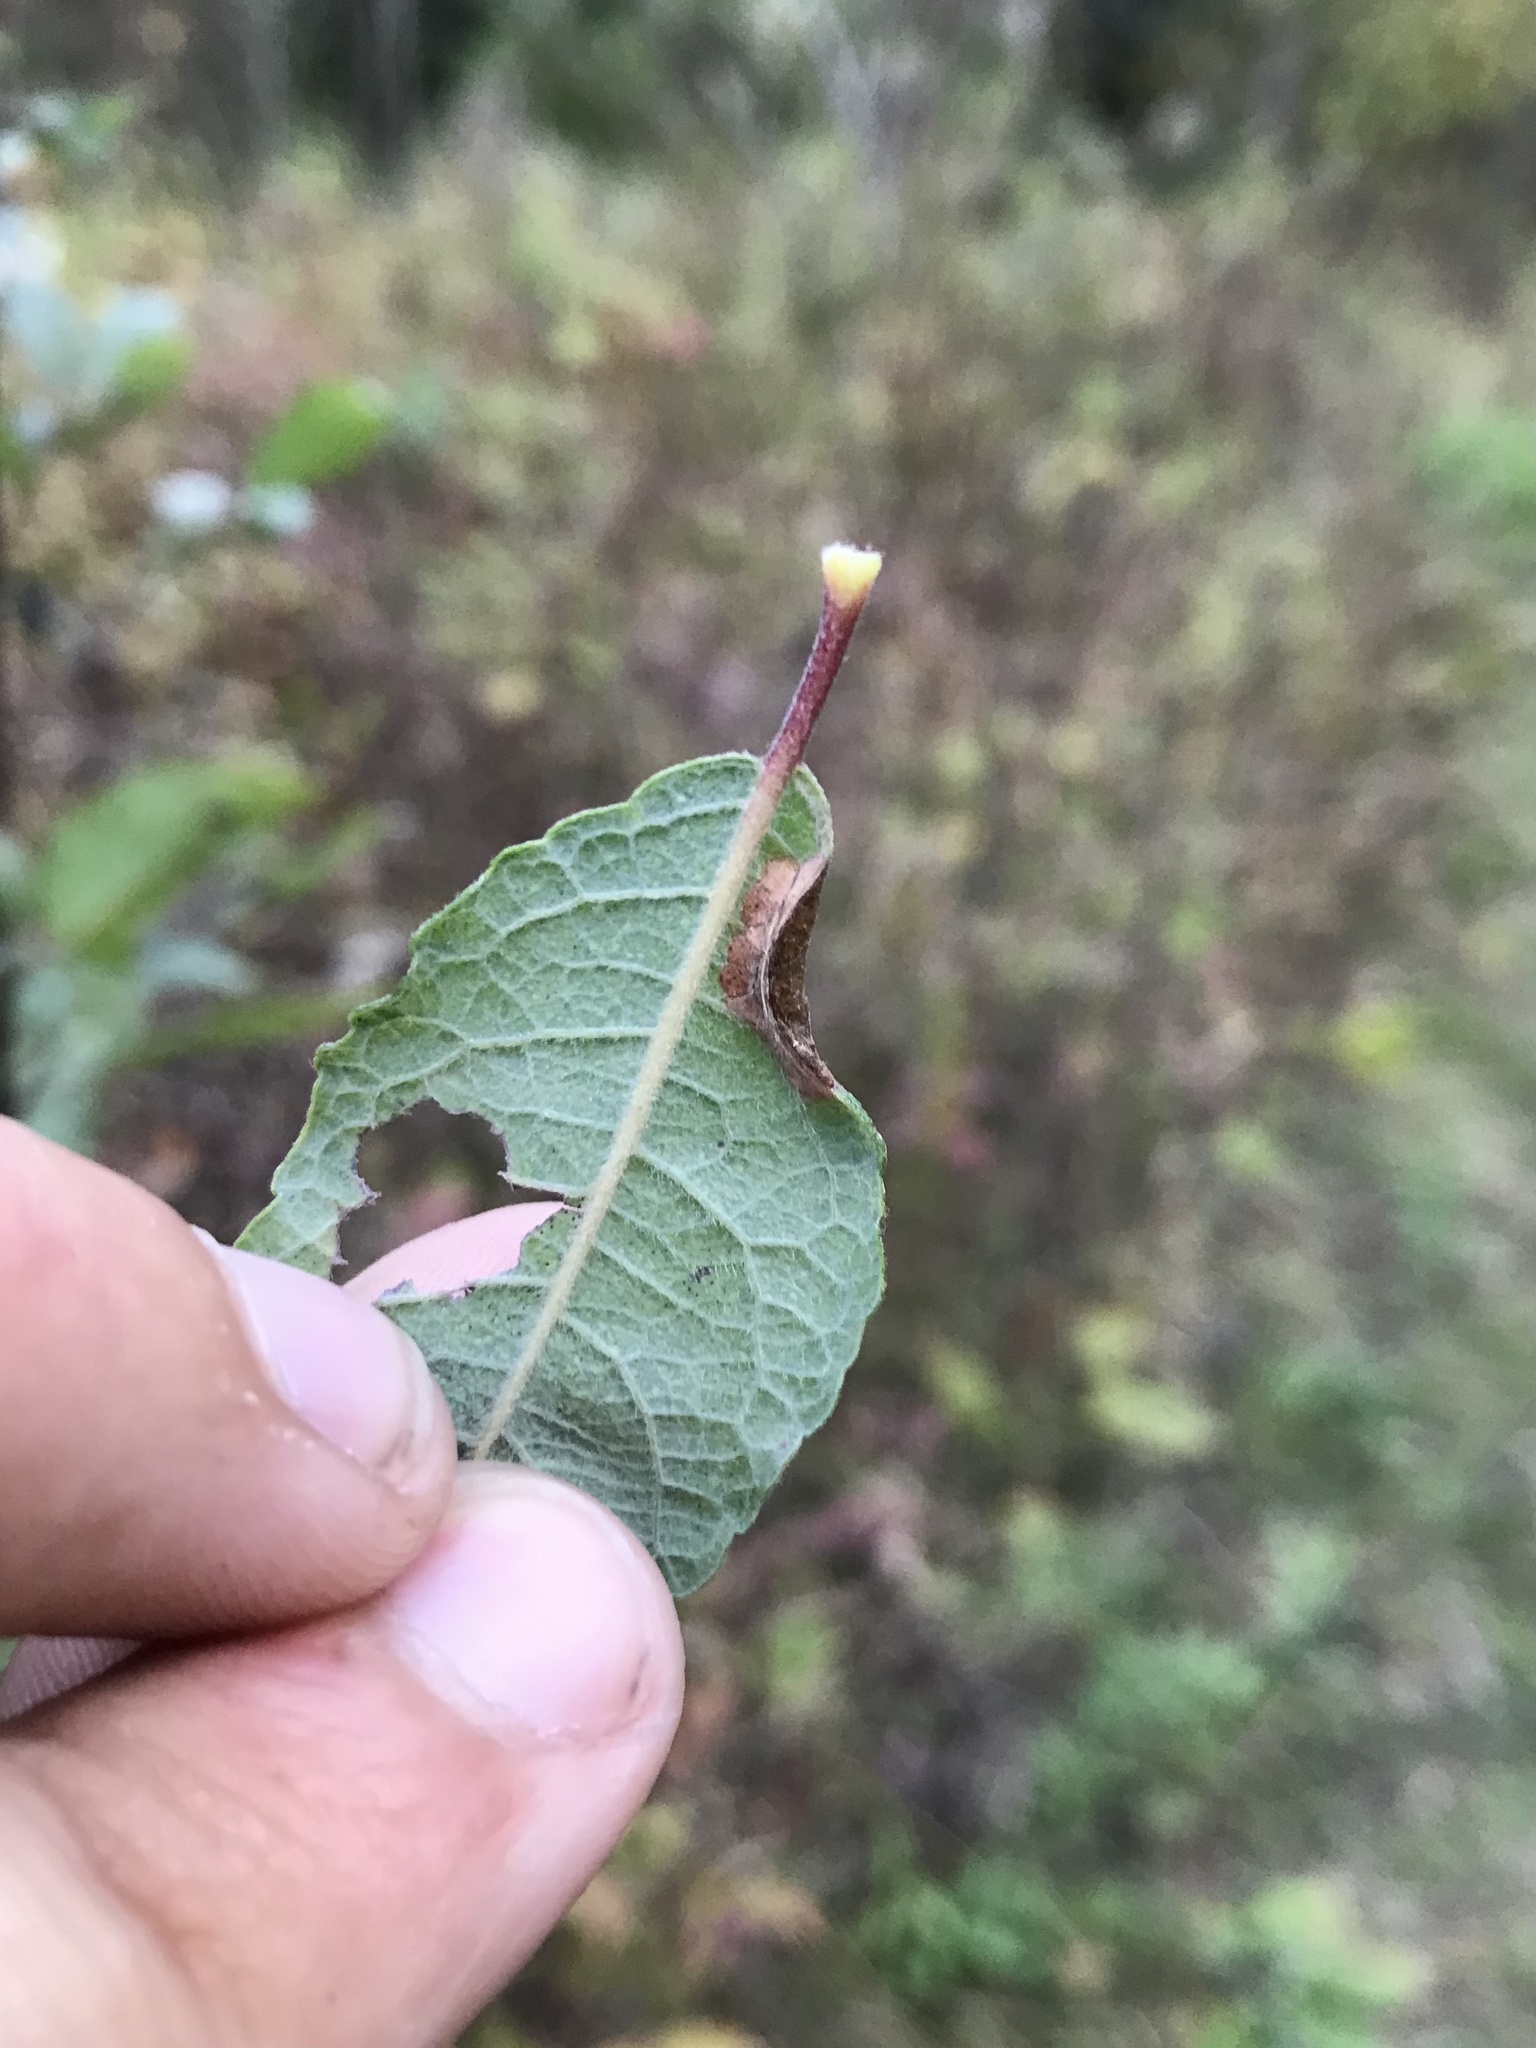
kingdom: Animalia
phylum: Arthropoda
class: Insecta
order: Lepidoptera
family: Gracillariidae
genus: Phyllonorycter
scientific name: Phyllonorycter scudderella
